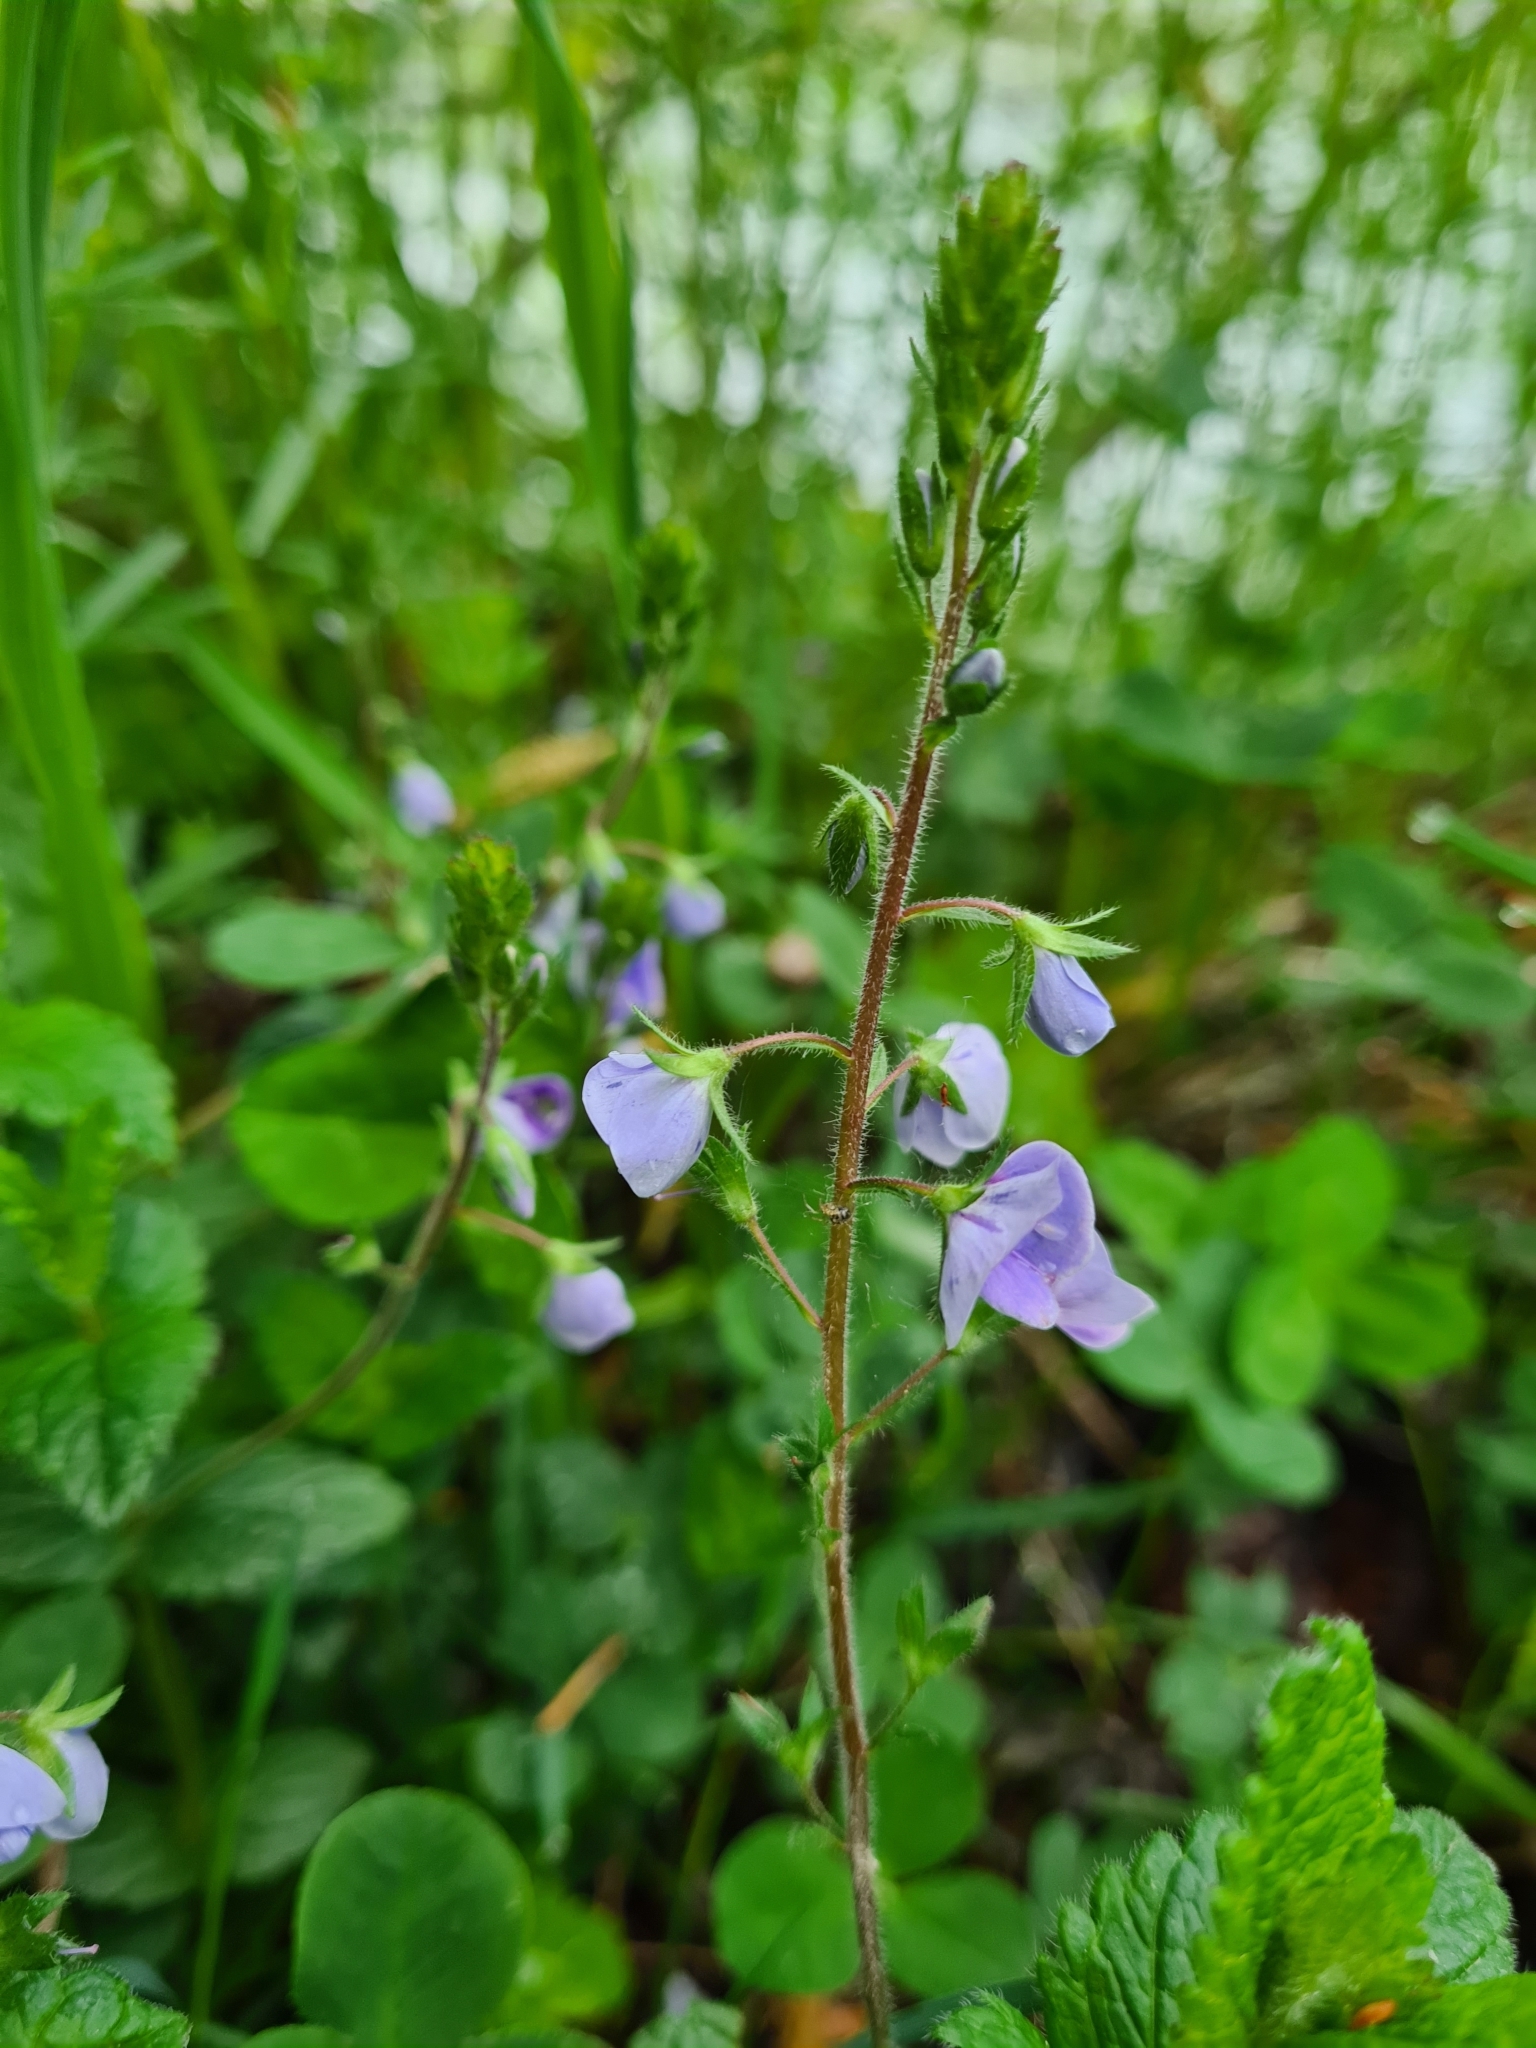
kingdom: Plantae
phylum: Tracheophyta
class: Magnoliopsida
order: Lamiales
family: Plantaginaceae
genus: Veronica
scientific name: Veronica chamaedrys
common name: Germander speedwell
